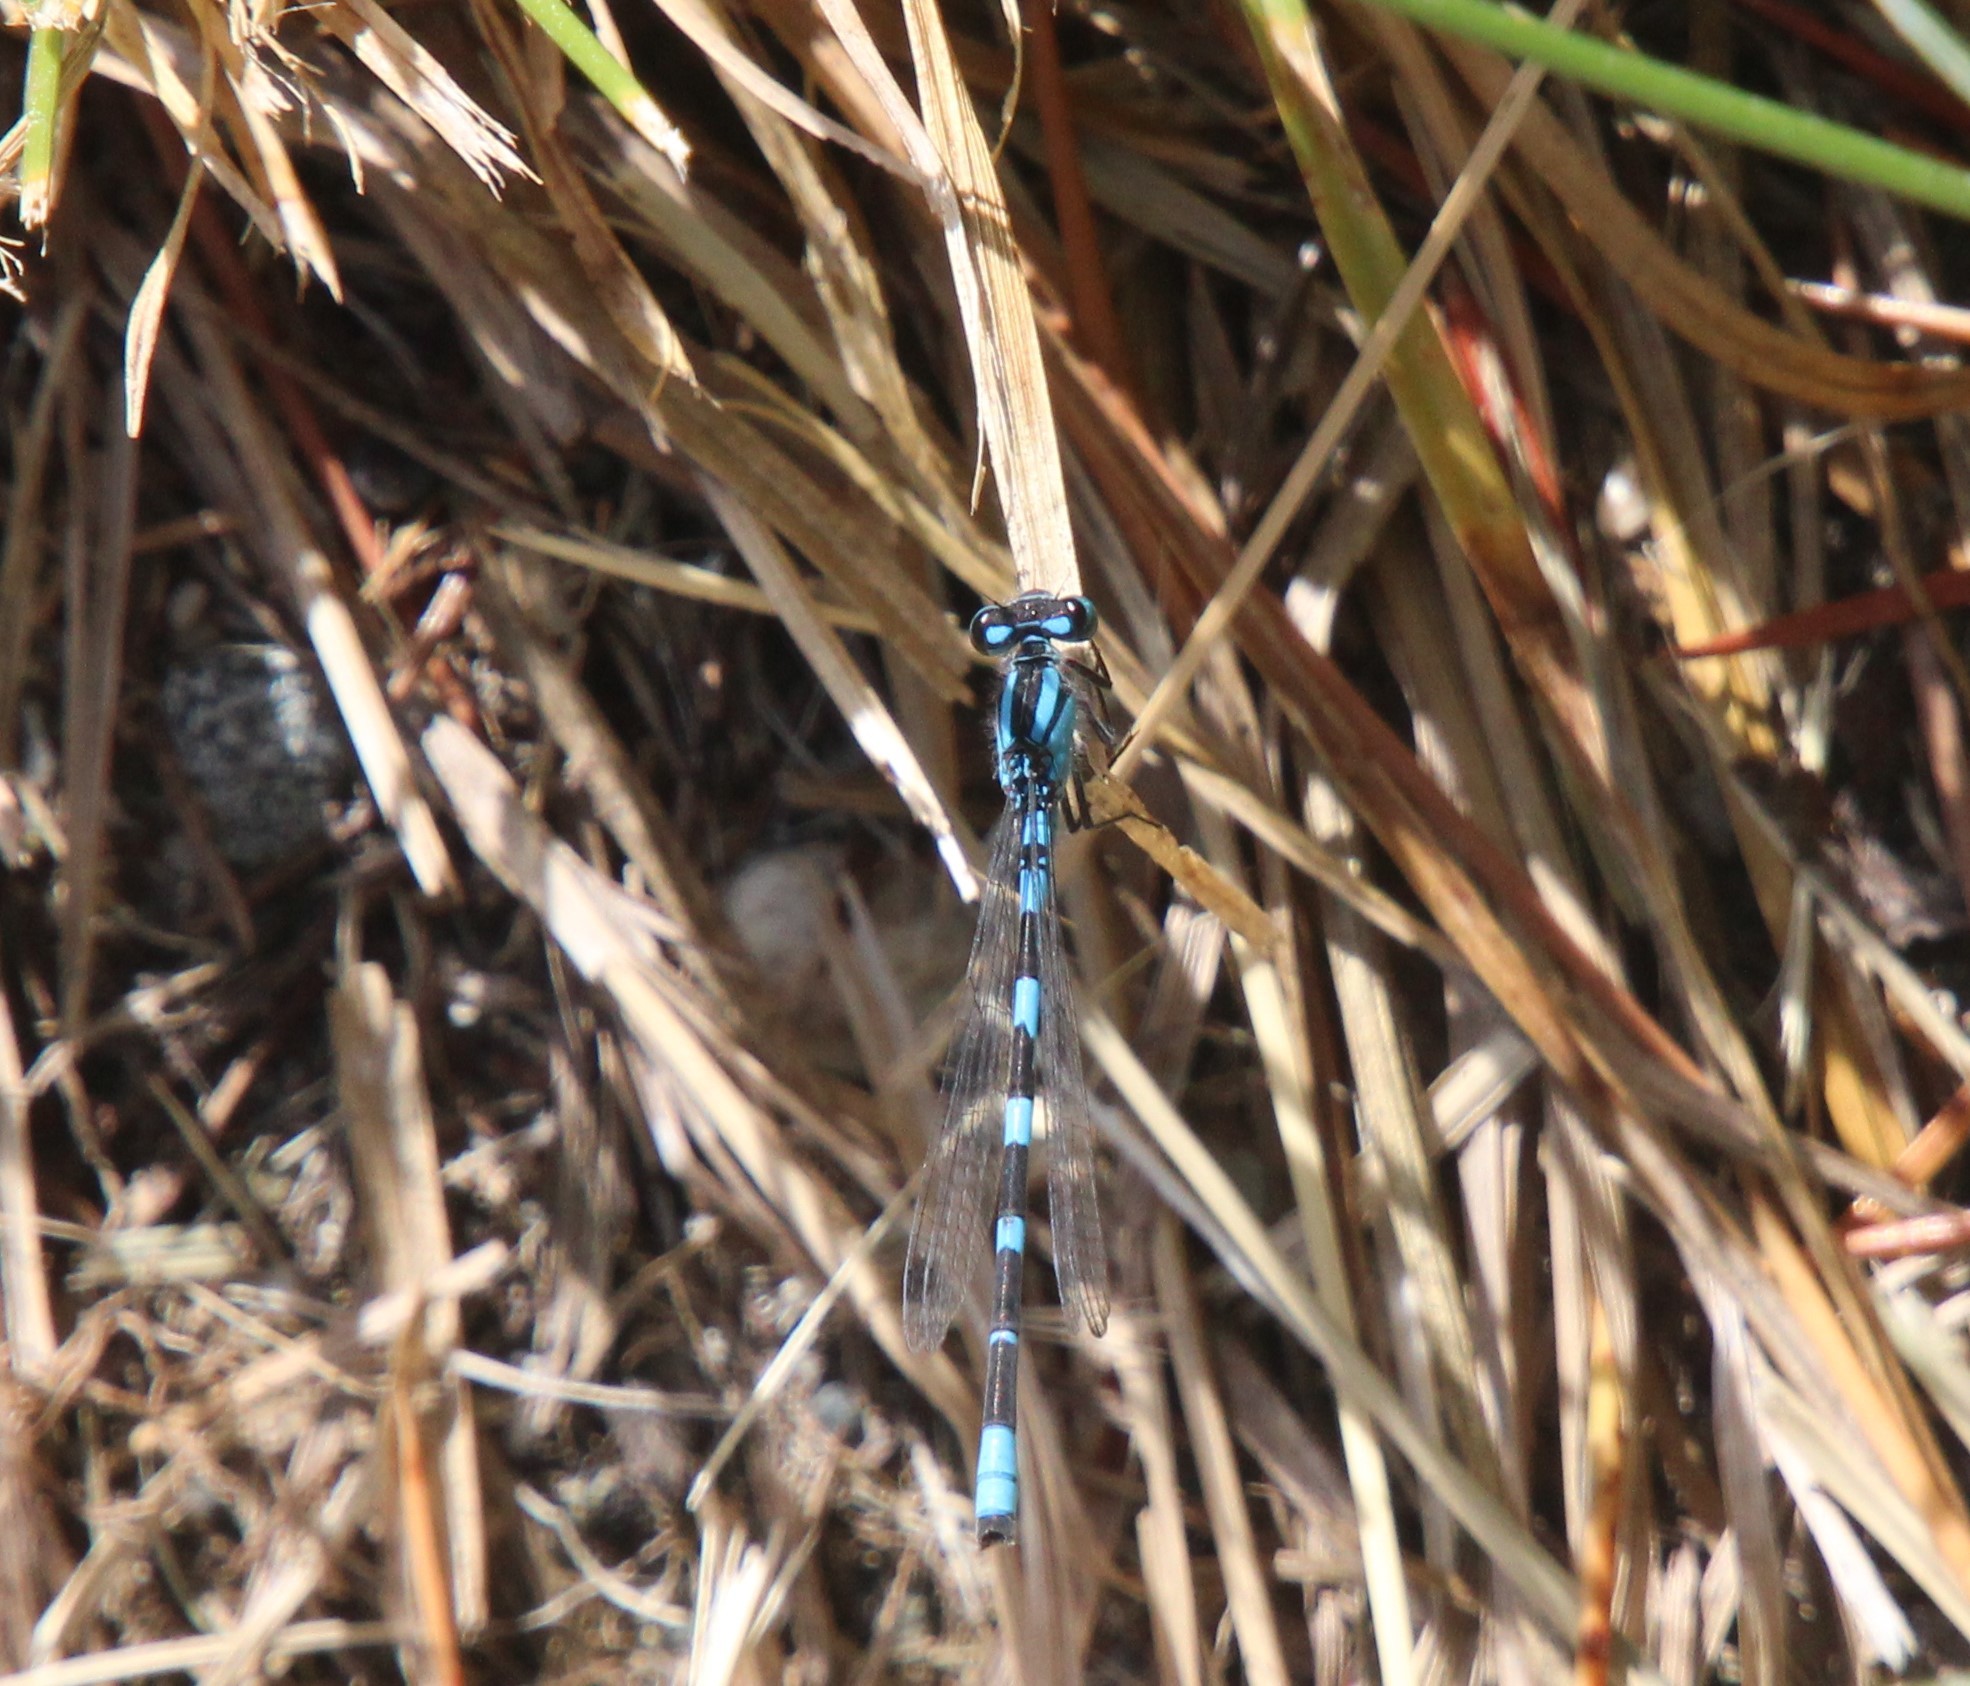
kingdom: Animalia
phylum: Arthropoda
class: Insecta
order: Odonata
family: Coenagrionidae
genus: Enallagma
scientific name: Enallagma carunculatum
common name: Tule bluet
